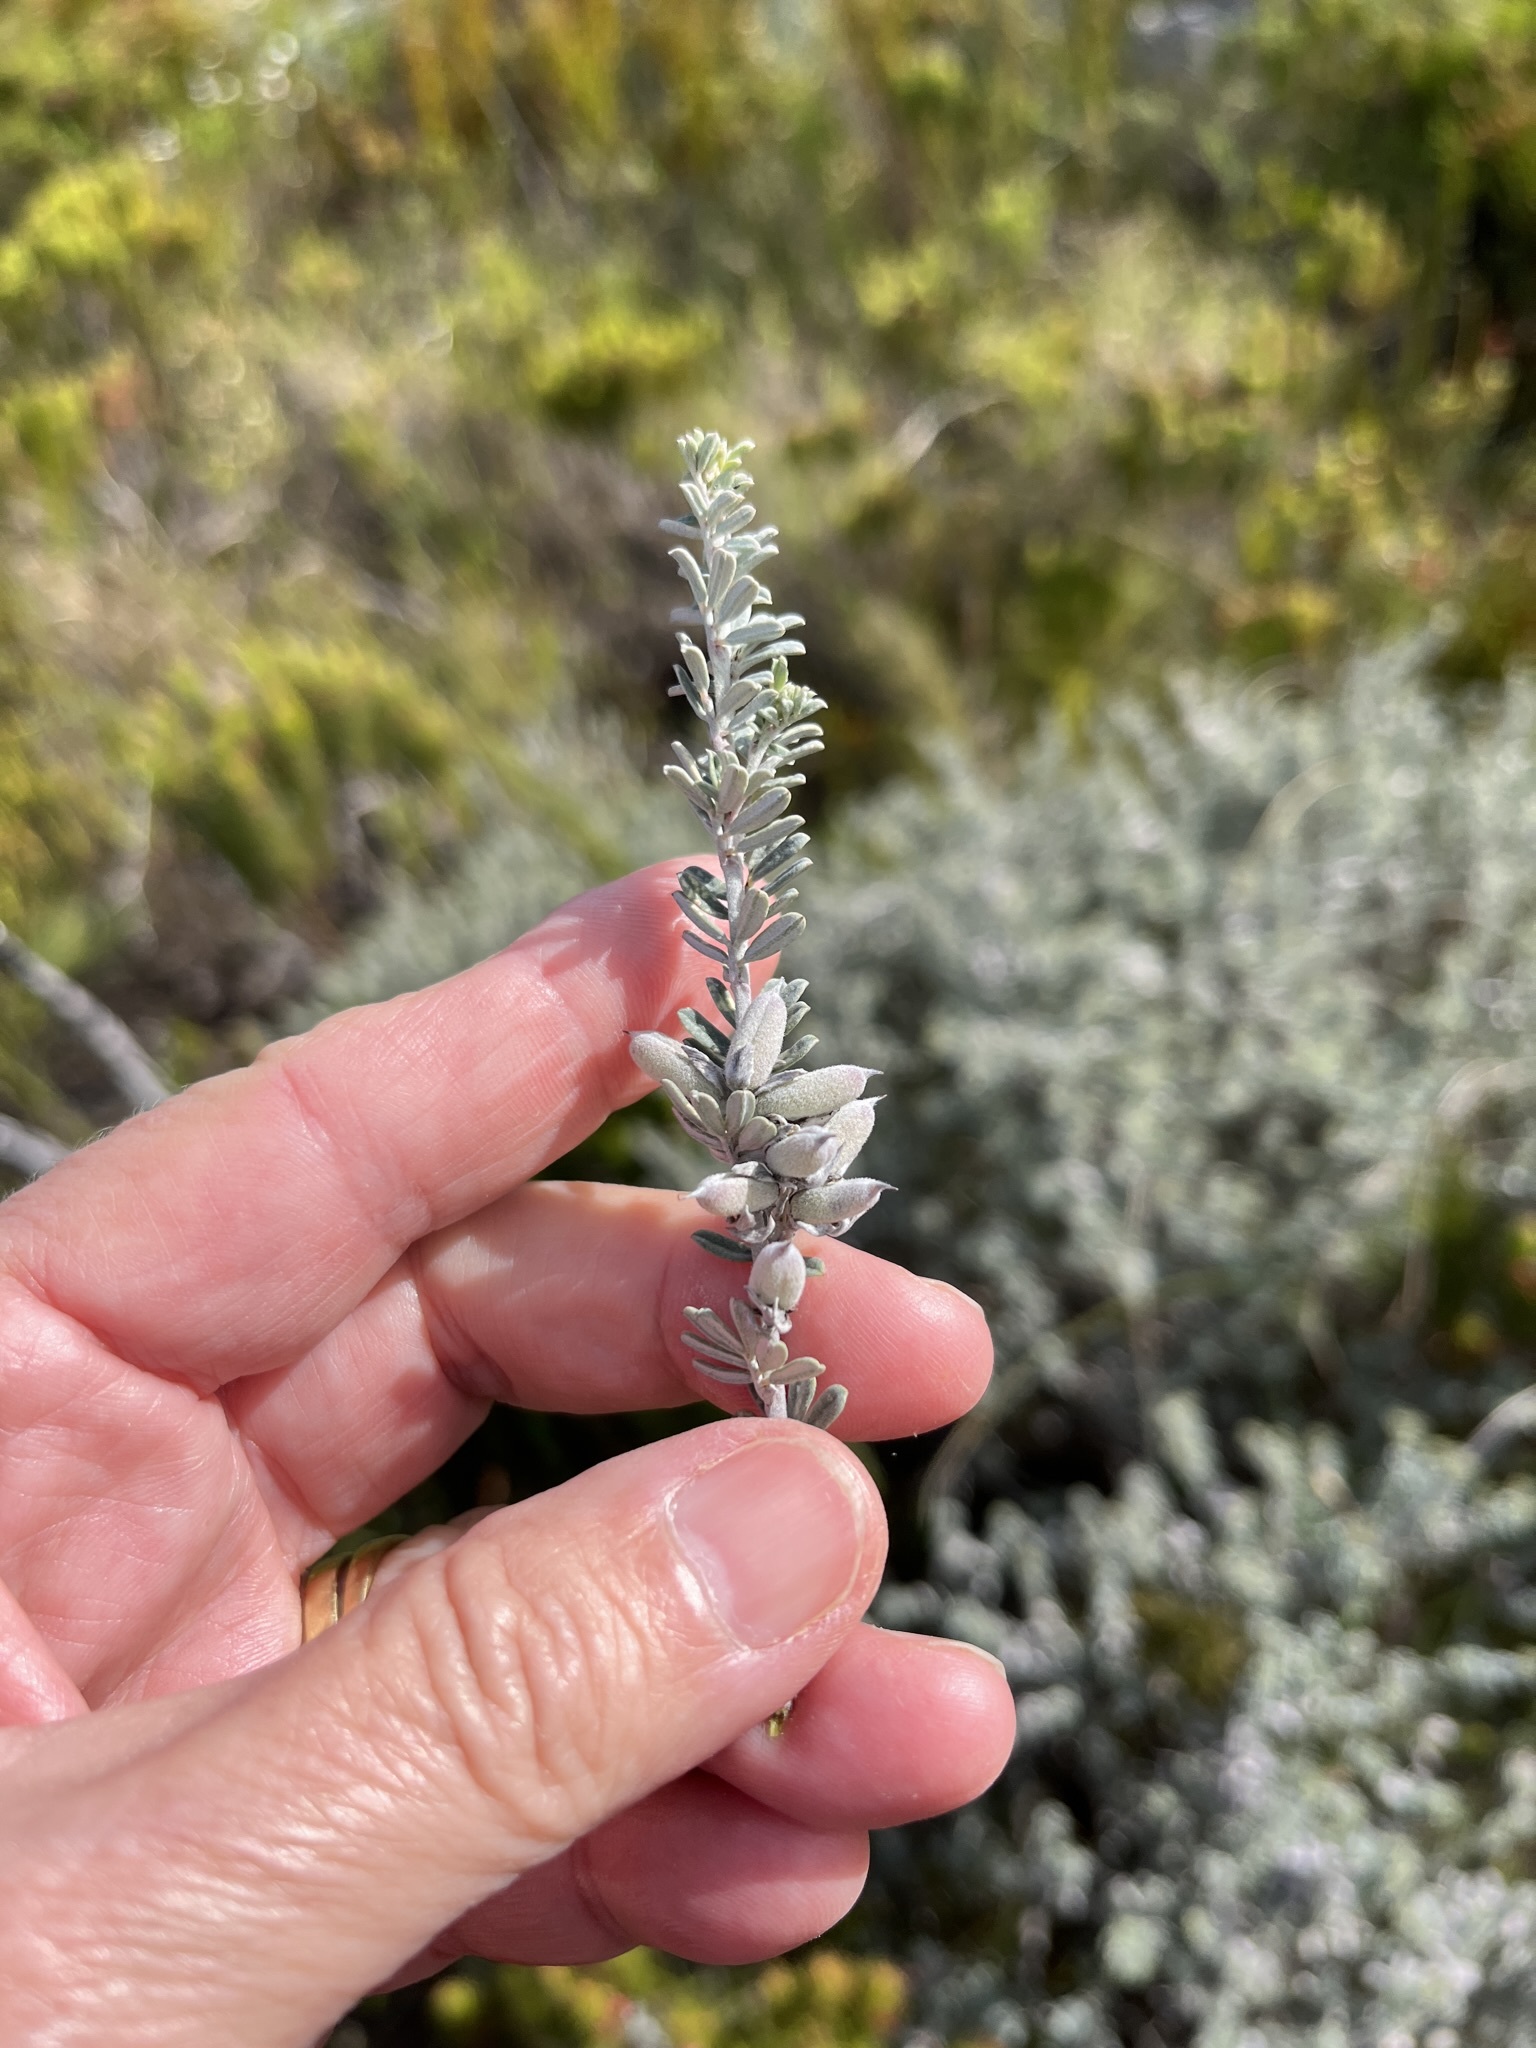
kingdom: Plantae
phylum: Tracheophyta
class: Magnoliopsida
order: Fabales
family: Fabaceae
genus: Indigofera
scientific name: Indigofera brachystachya
